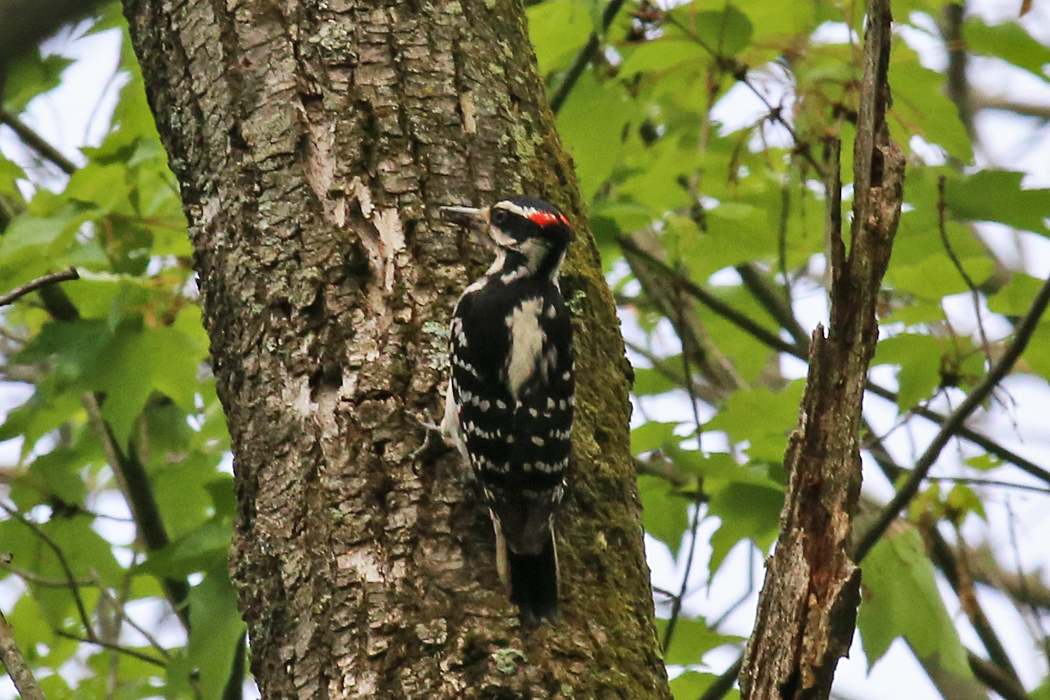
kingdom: Animalia
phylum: Chordata
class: Aves
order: Piciformes
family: Picidae
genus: Leuconotopicus
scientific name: Leuconotopicus villosus
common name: Hairy woodpecker
